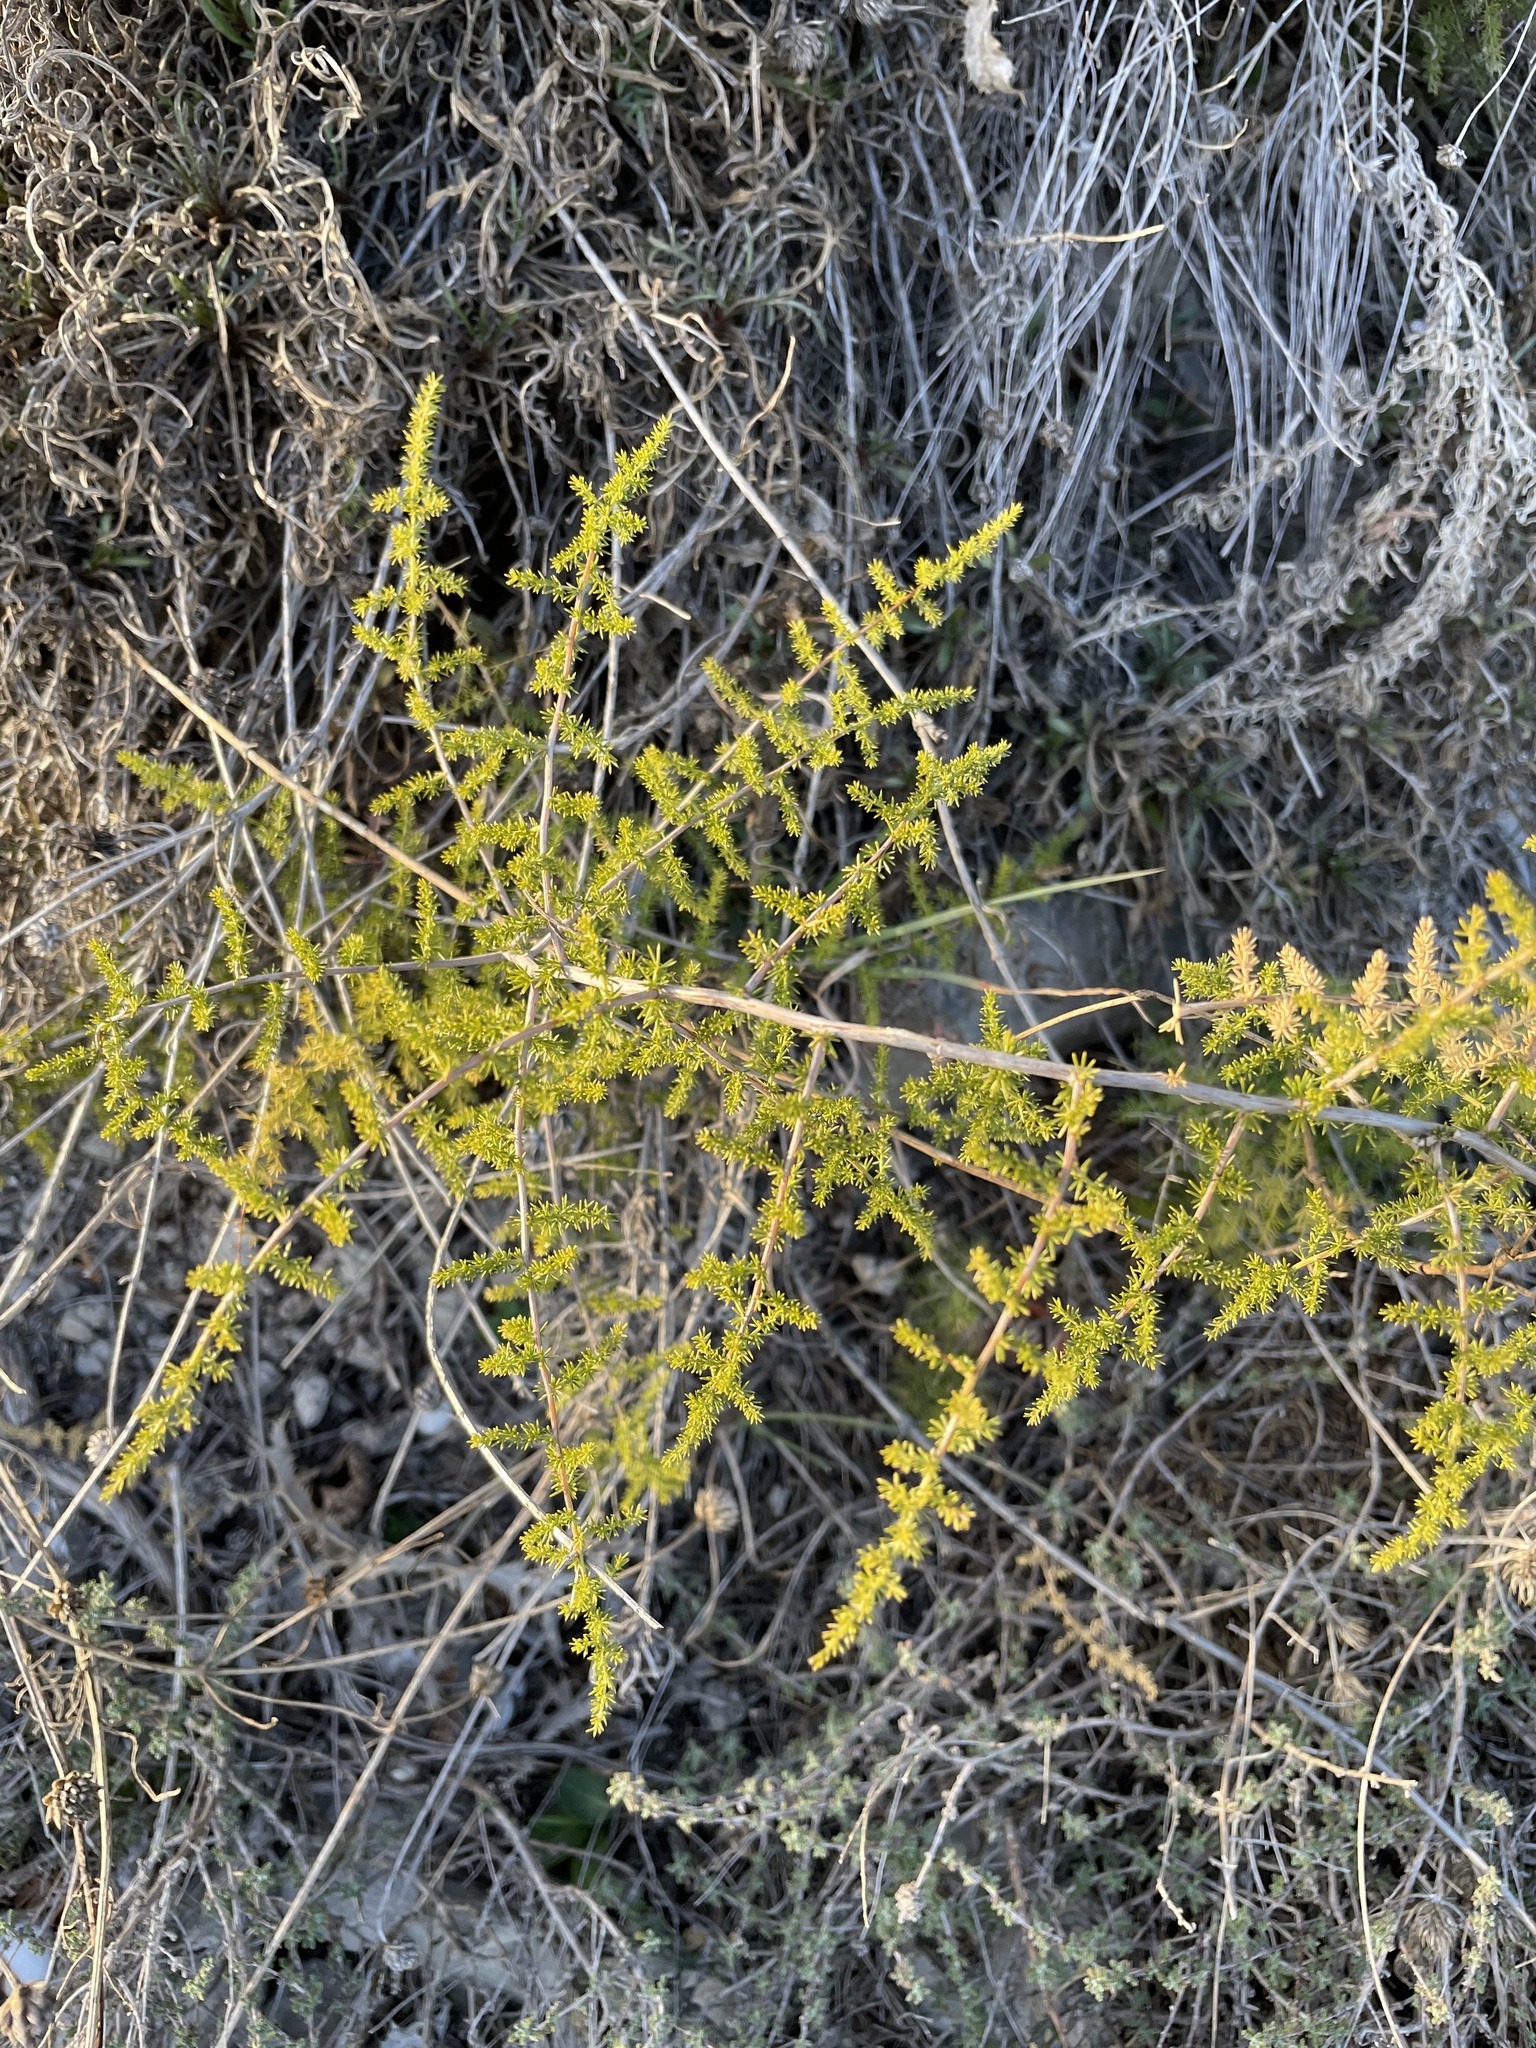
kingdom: Plantae
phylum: Tracheophyta
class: Liliopsida
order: Asparagales
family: Asparagaceae
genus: Asparagus
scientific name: Asparagus acutifolius
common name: Wild asparagus
